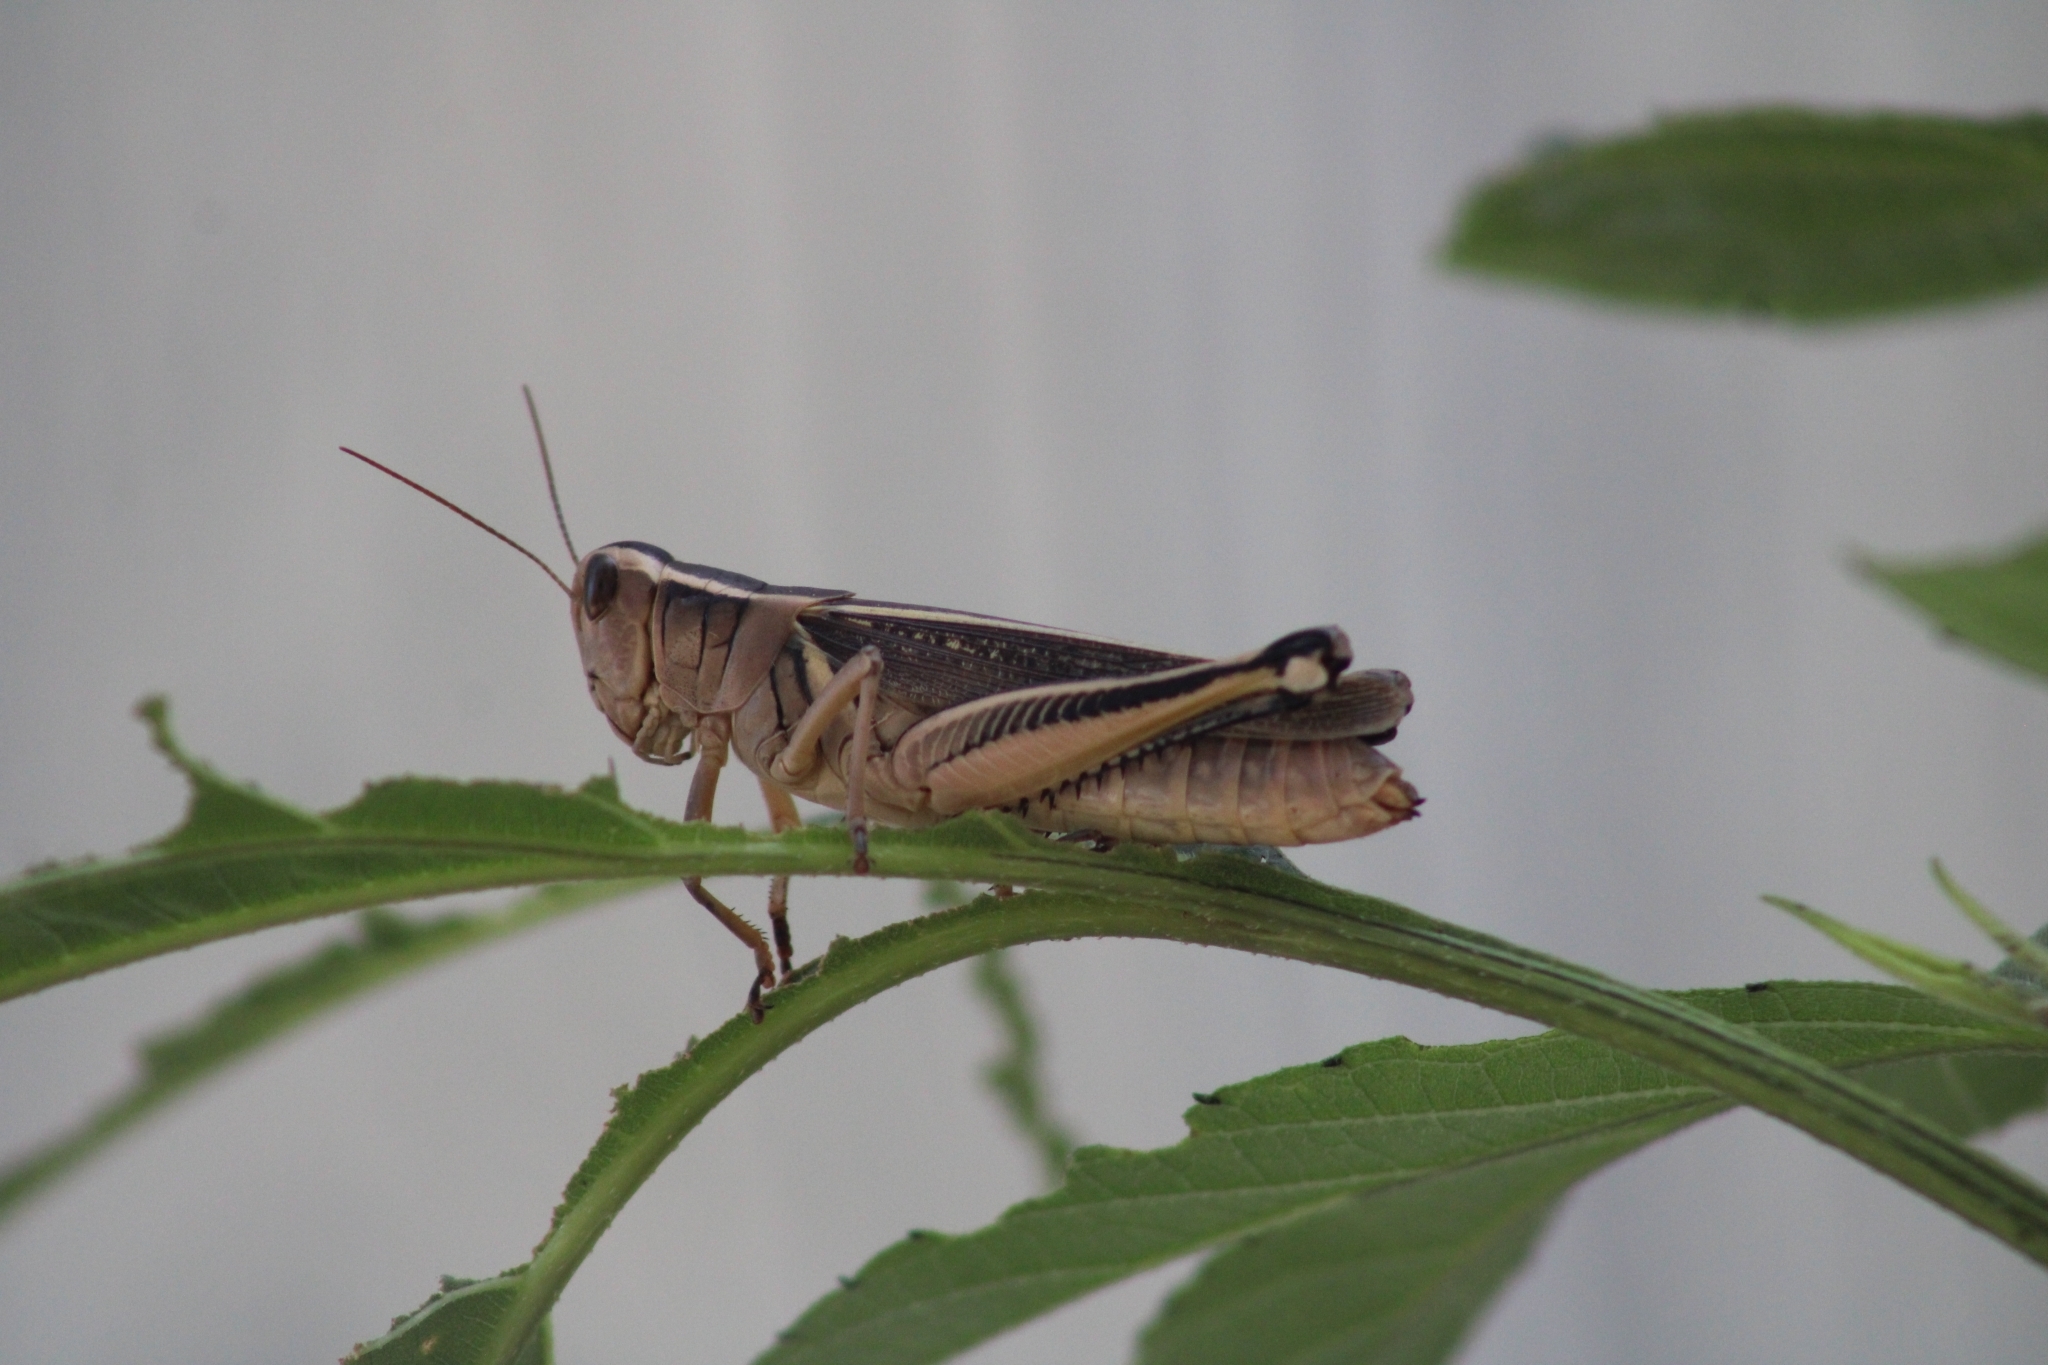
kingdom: Animalia
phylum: Arthropoda
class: Insecta
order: Orthoptera
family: Acrididae
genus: Melanoplus
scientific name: Melanoplus bivittatus
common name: Two-striped grasshopper
